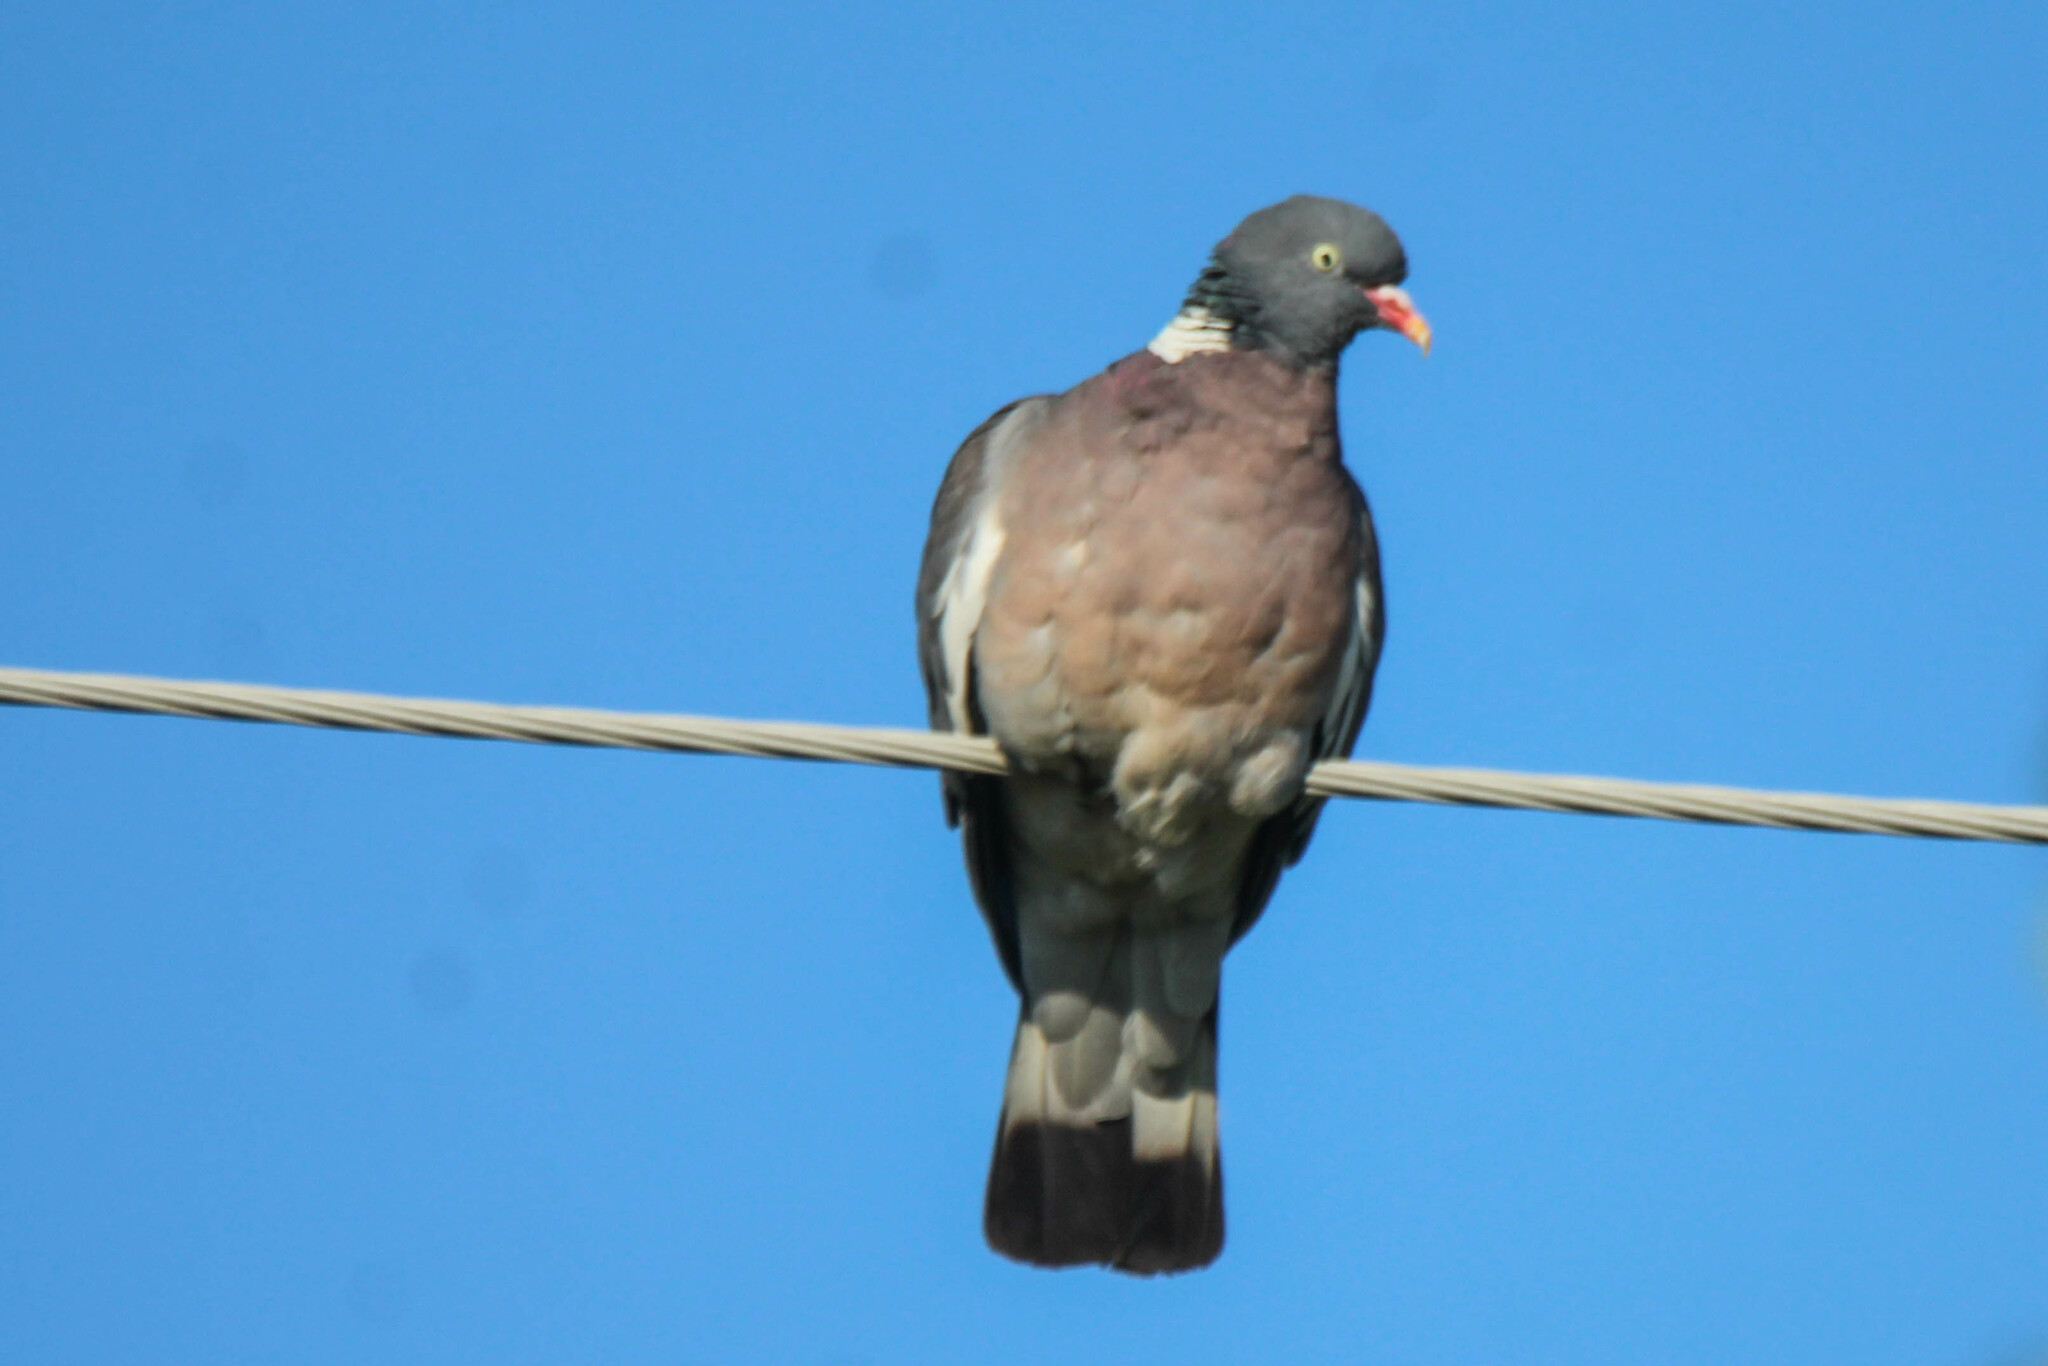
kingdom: Animalia
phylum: Chordata
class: Aves
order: Columbiformes
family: Columbidae
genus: Columba
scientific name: Columba palumbus
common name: Common wood pigeon
